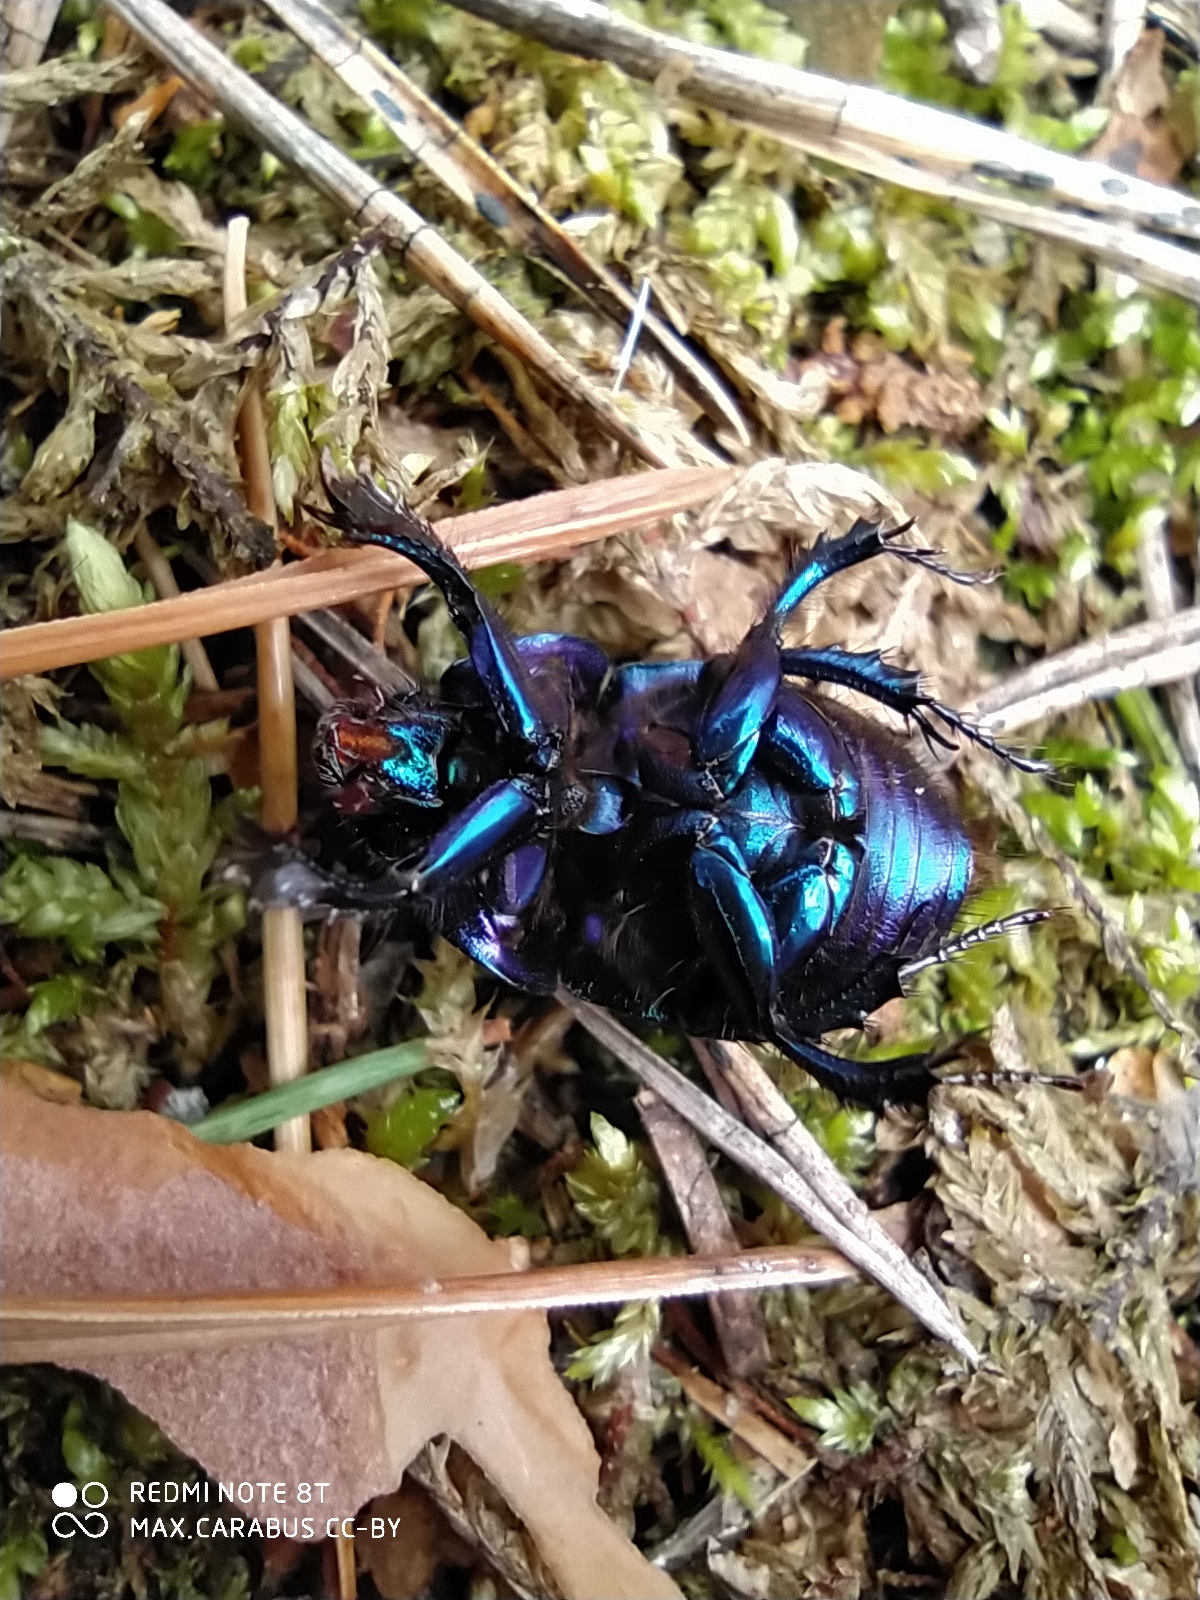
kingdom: Animalia
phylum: Arthropoda
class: Insecta
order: Coleoptera
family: Geotrupidae
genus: Anoplotrupes
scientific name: Anoplotrupes stercorosus
